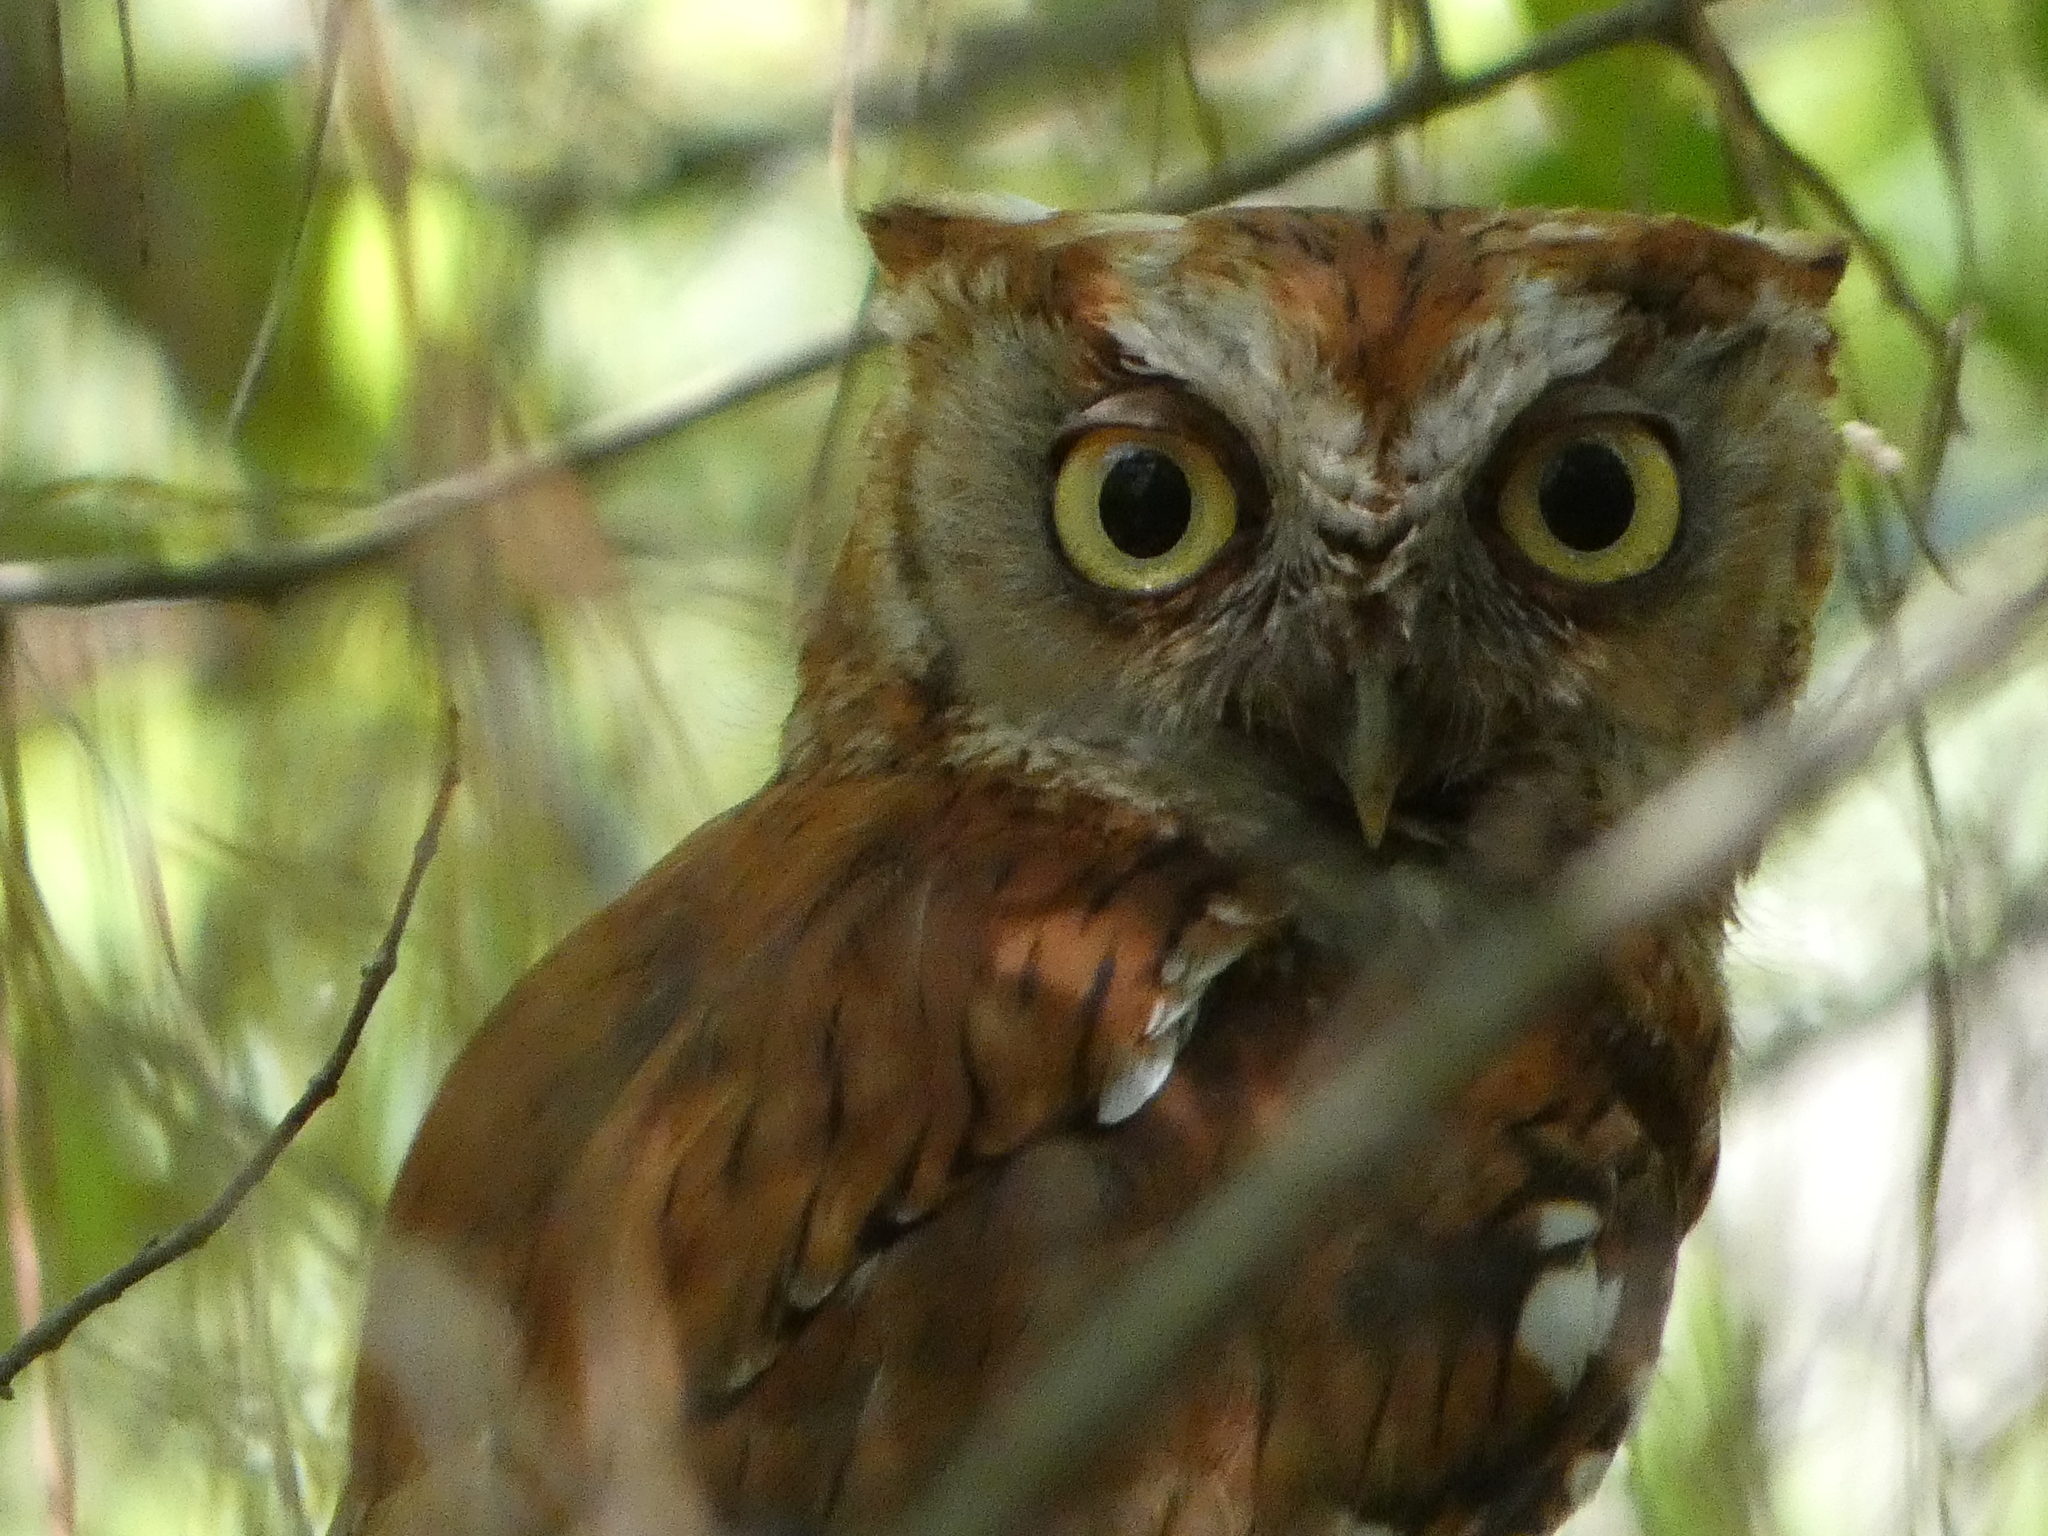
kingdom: Animalia
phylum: Chordata
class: Aves
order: Strigiformes
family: Strigidae
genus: Megascops
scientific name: Megascops asio
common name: Eastern screech-owl
